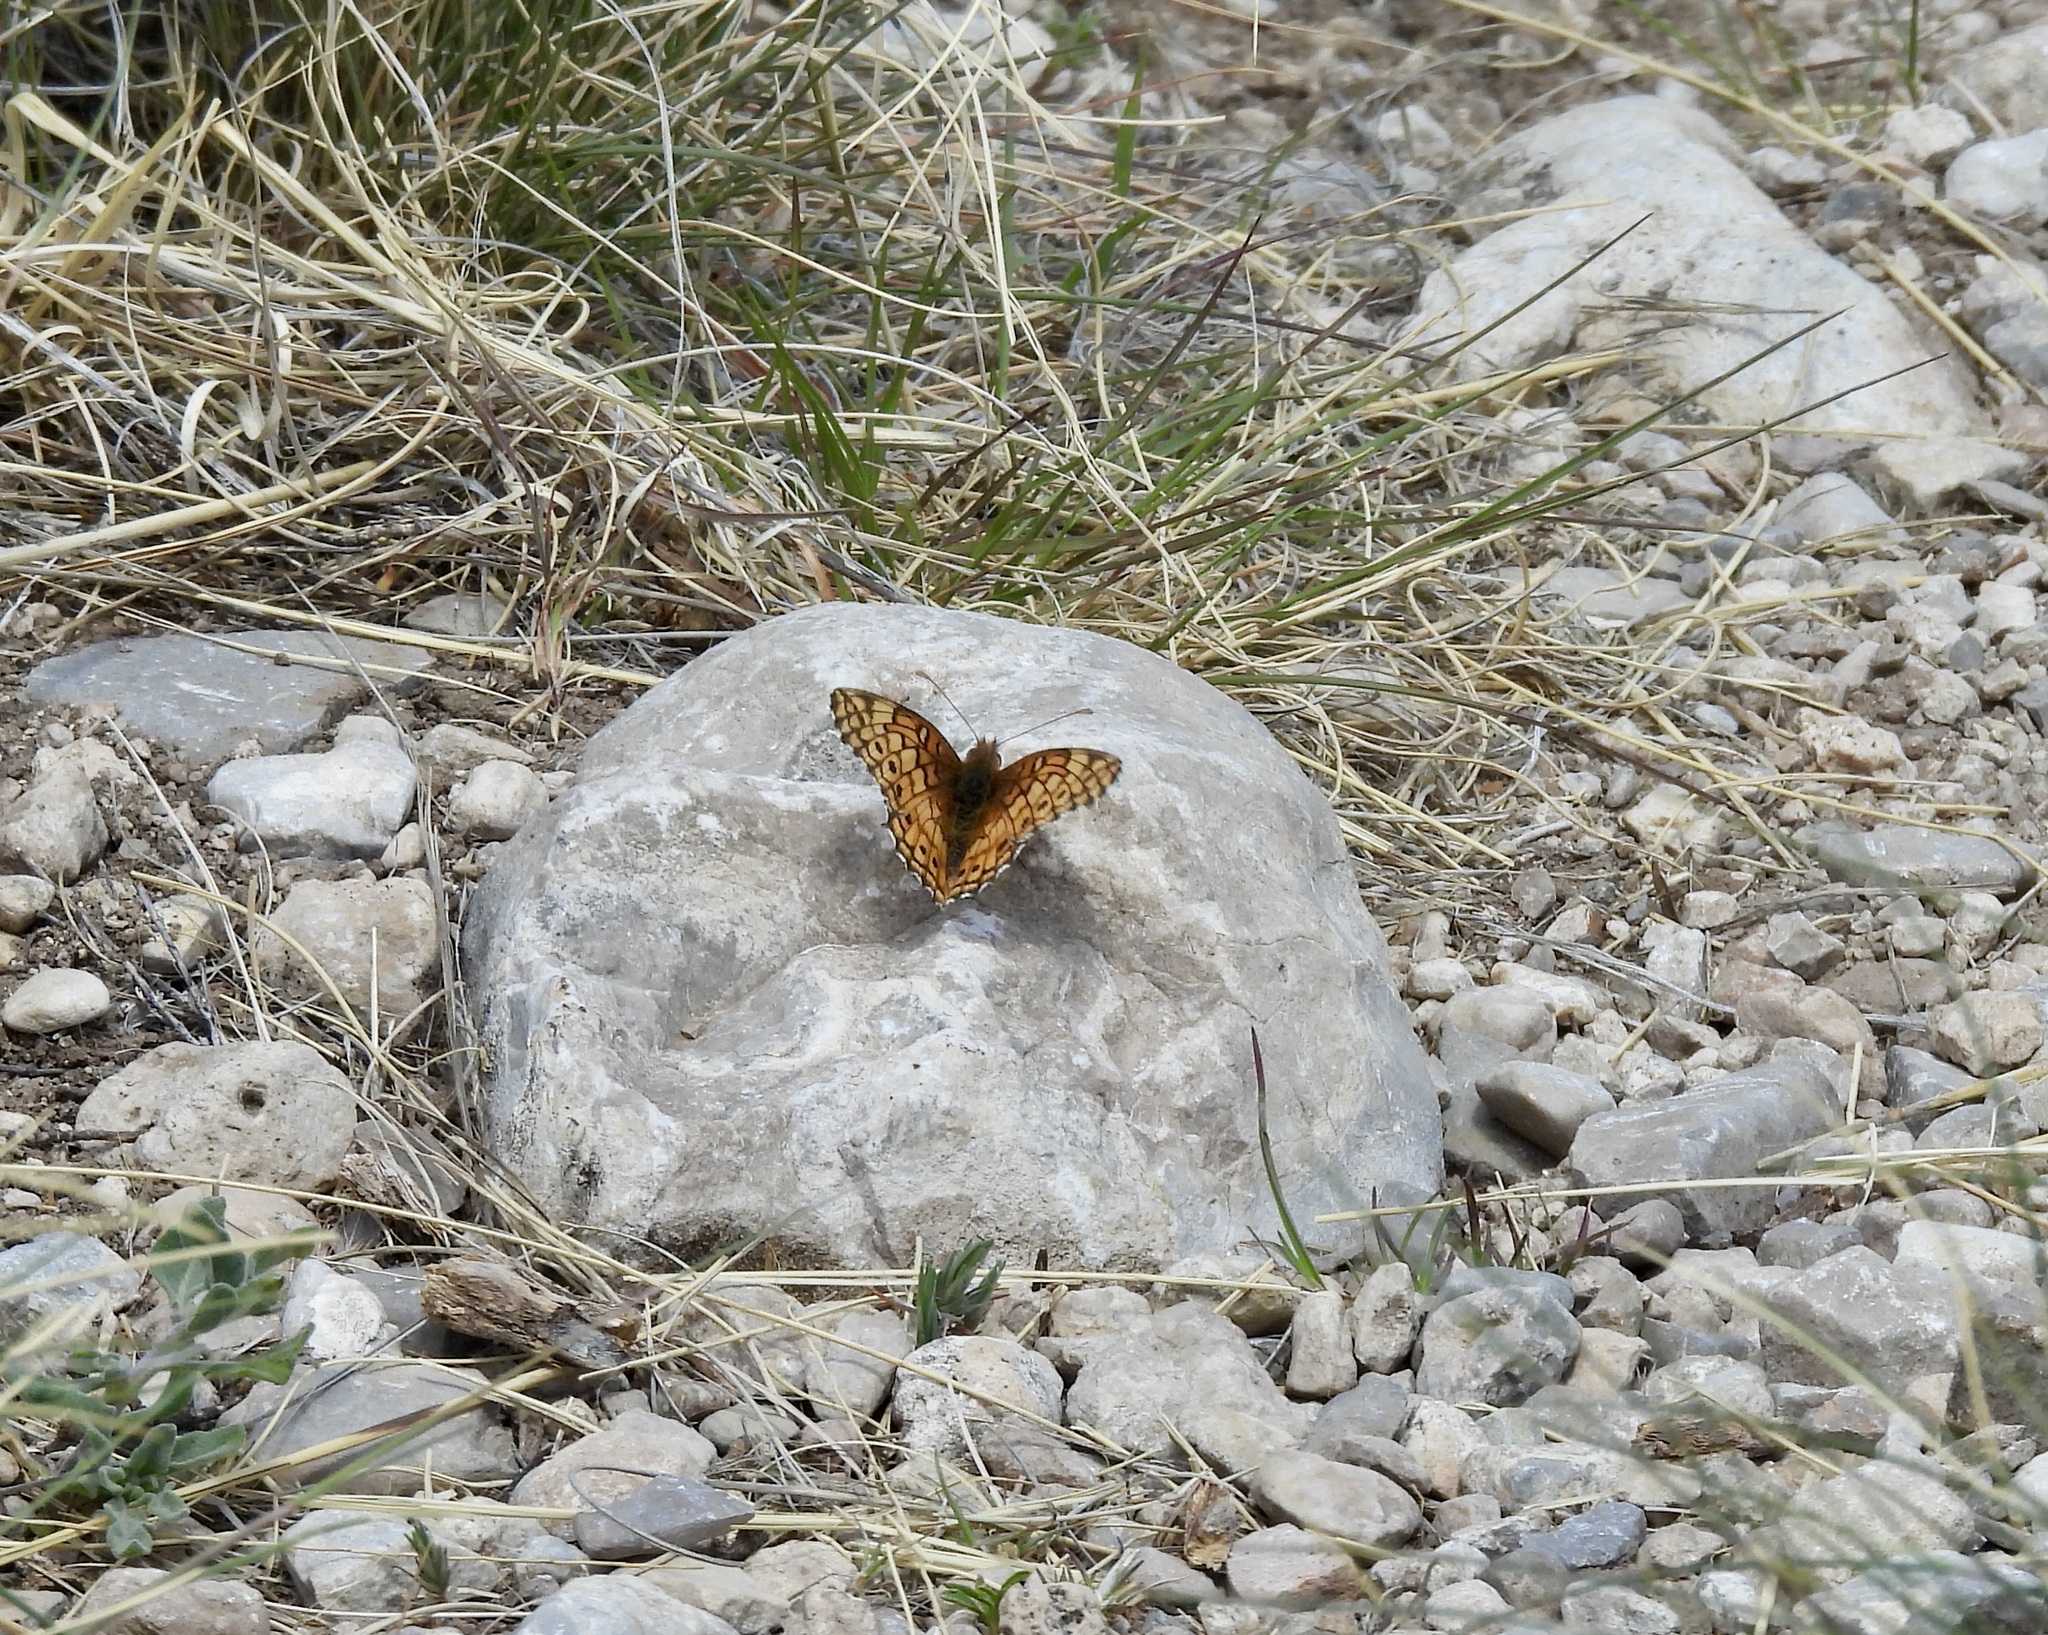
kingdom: Animalia
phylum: Arthropoda
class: Insecta
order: Lepidoptera
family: Nymphalidae
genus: Euptoieta
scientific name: Euptoieta claudia
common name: Variegated fritillary
